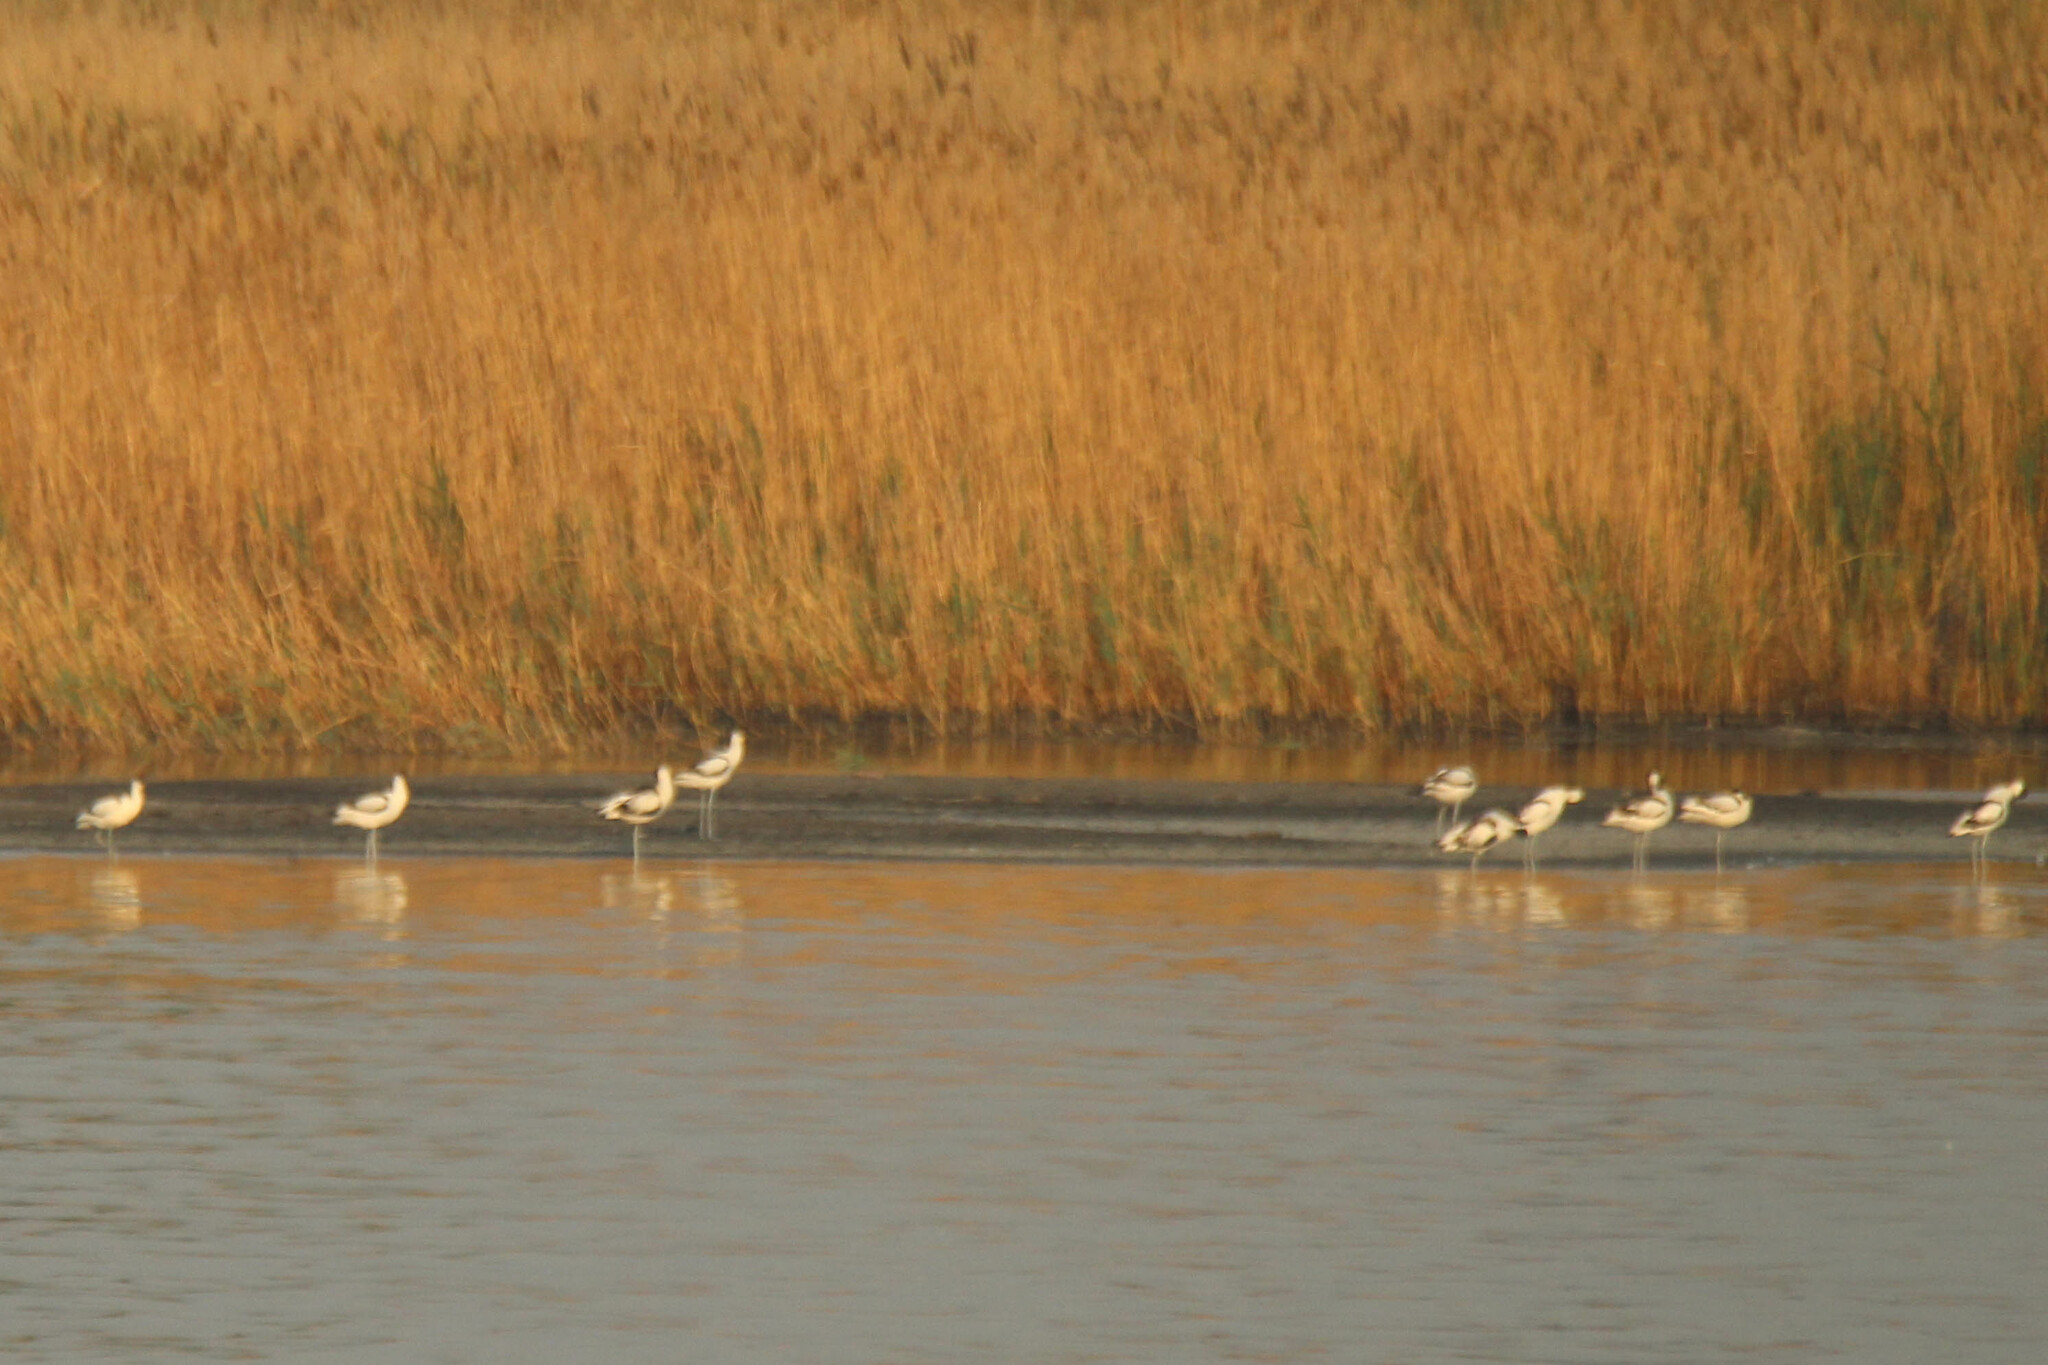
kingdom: Animalia
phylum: Chordata
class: Aves
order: Charadriiformes
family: Recurvirostridae
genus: Recurvirostra
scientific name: Recurvirostra avosetta
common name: Pied avocet
